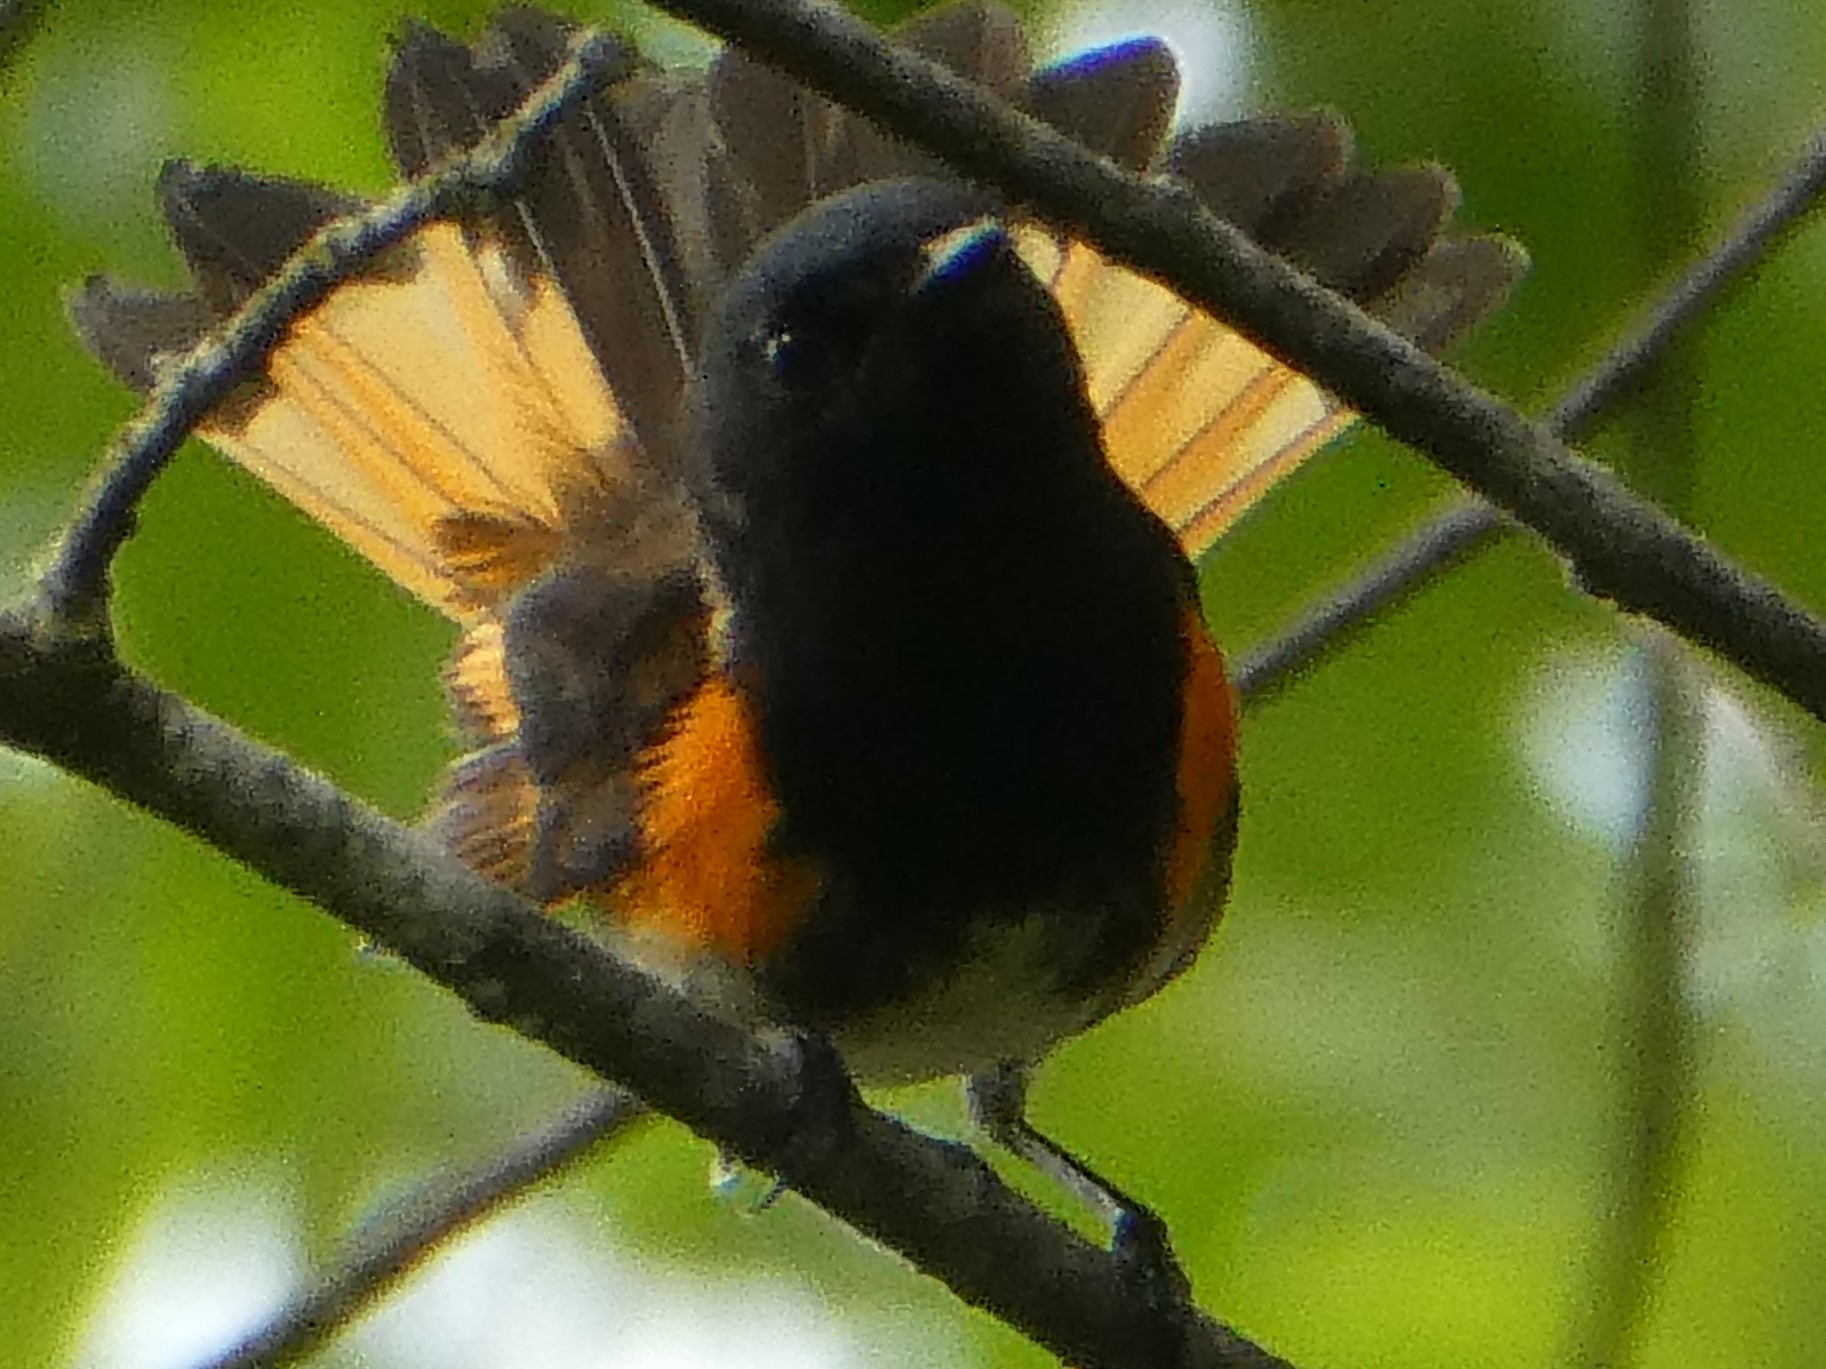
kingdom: Animalia
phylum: Chordata
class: Aves
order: Passeriformes
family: Parulidae
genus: Setophaga
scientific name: Setophaga ruticilla
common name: American redstart
